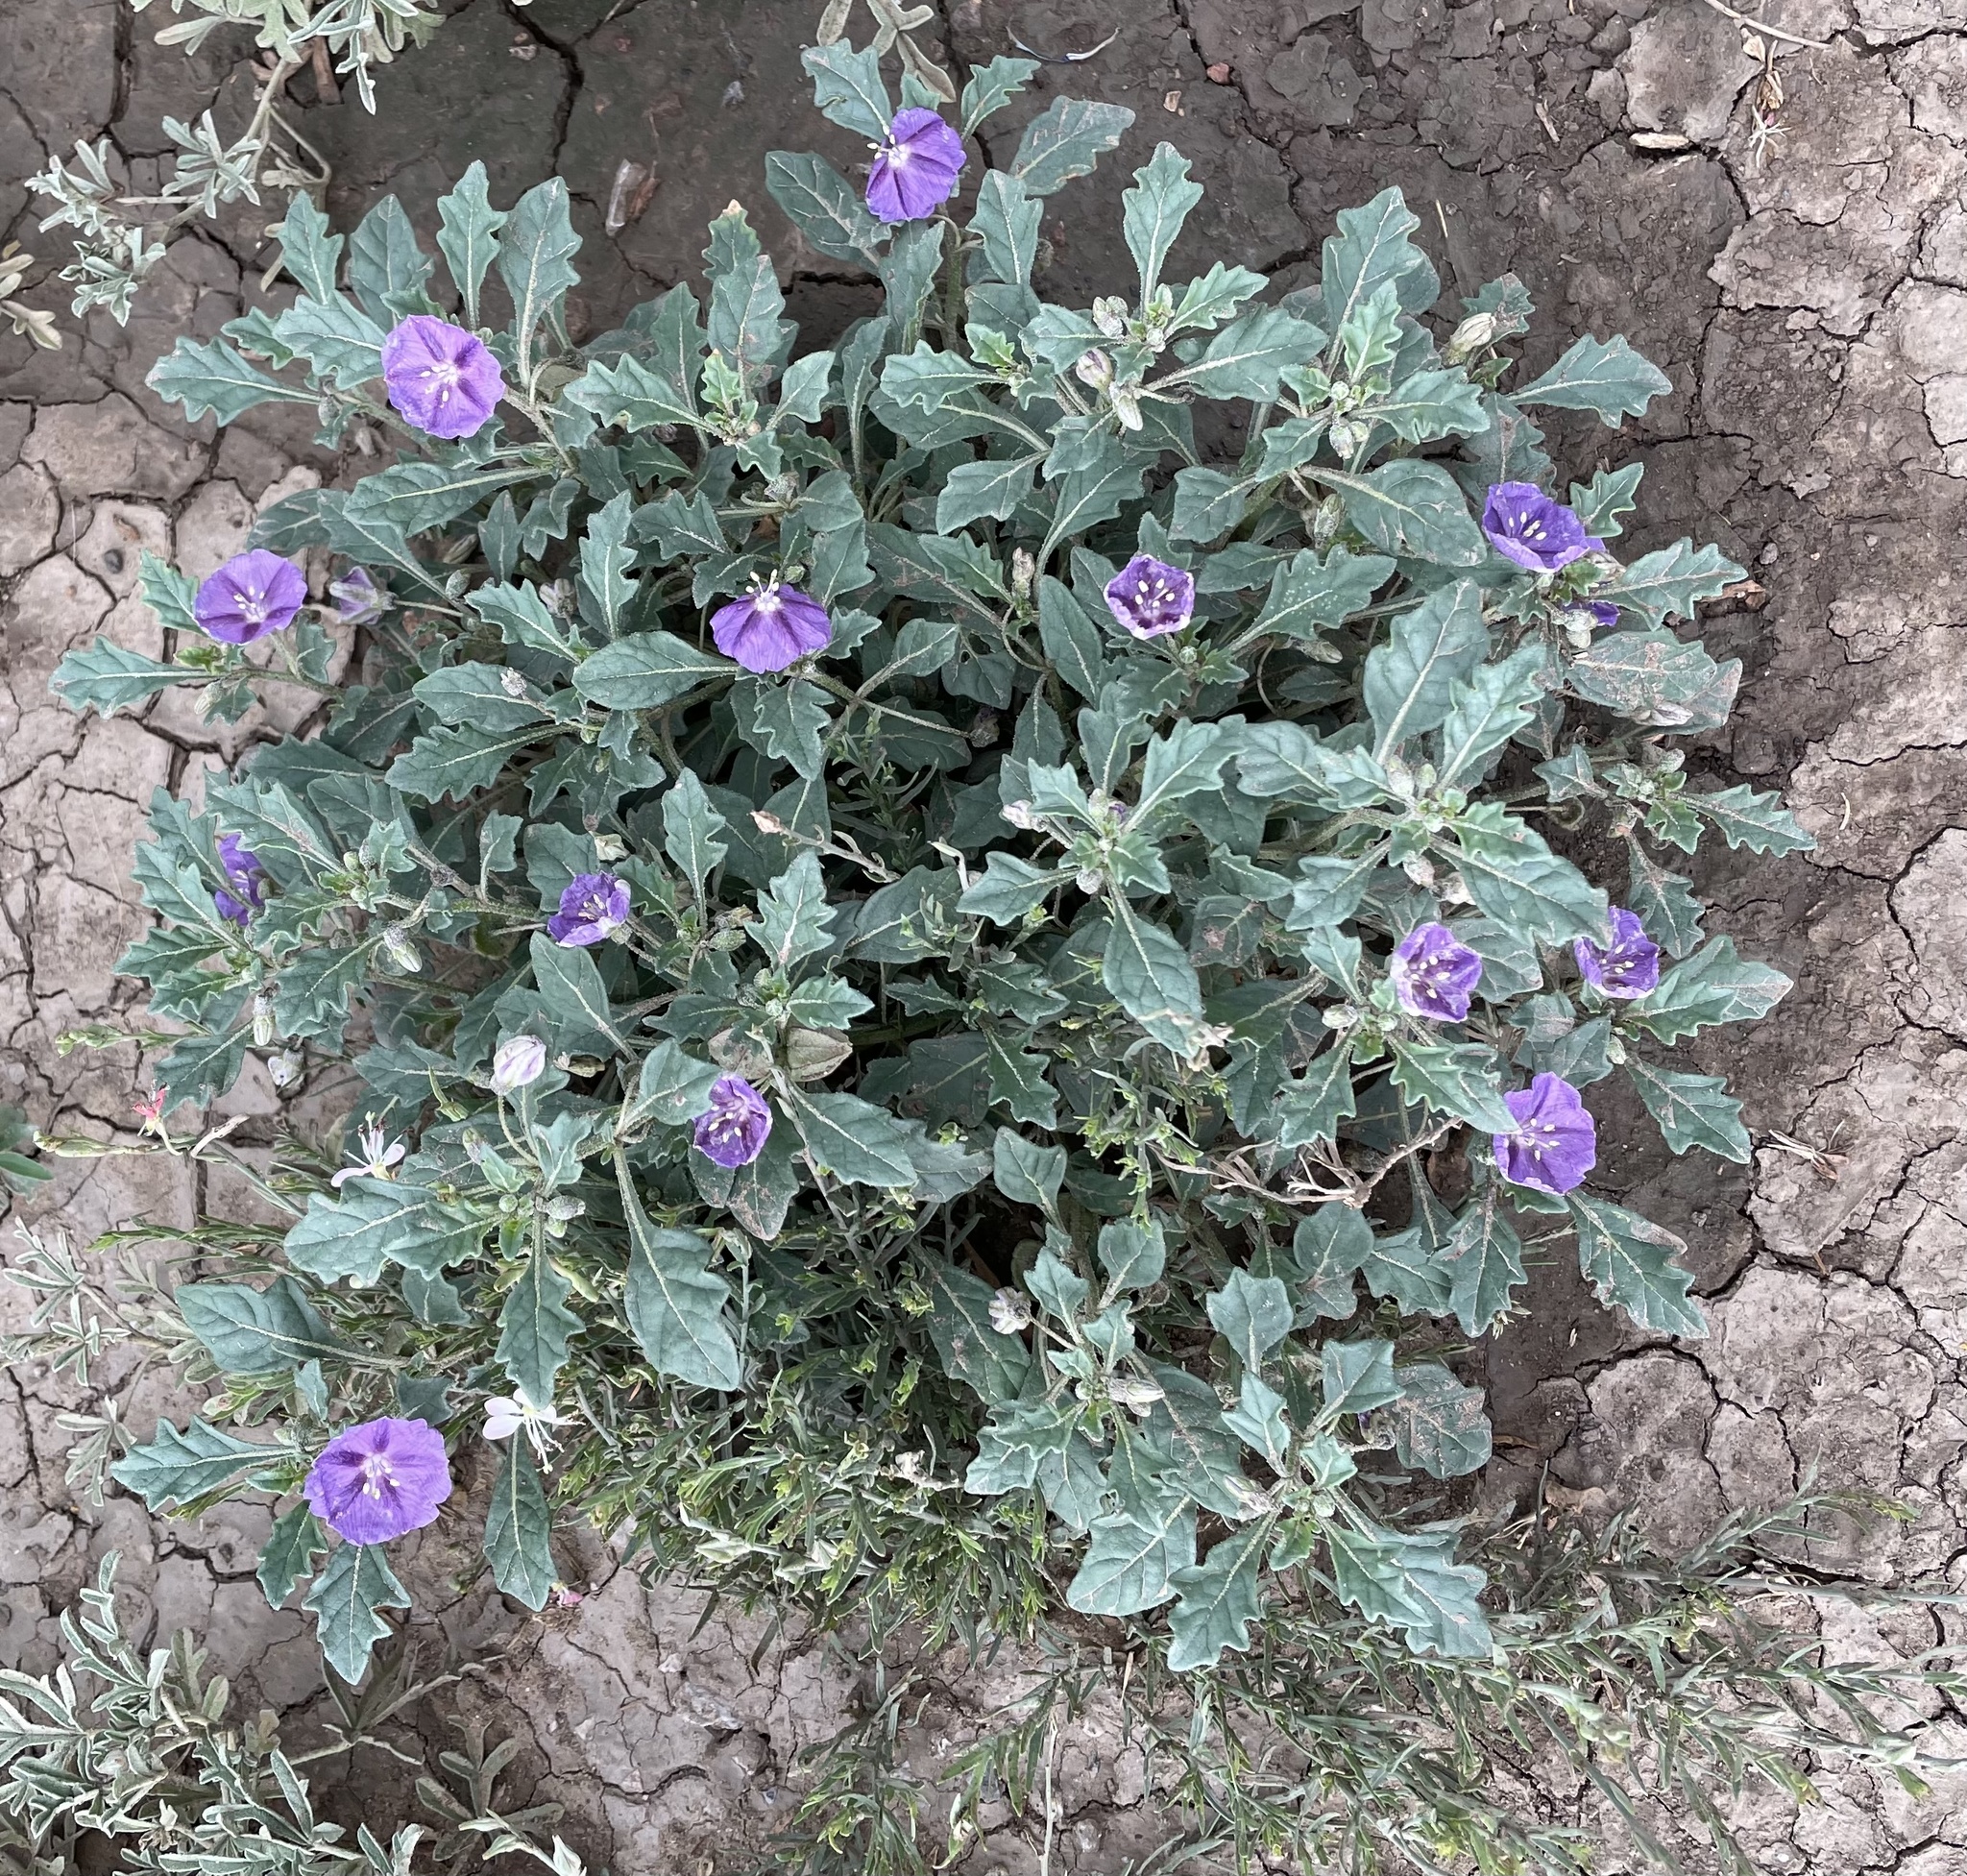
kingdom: Plantae
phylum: Tracheophyta
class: Magnoliopsida
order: Solanales
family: Solanaceae
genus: Quincula
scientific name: Quincula lobata
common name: Purple-ground-cherry
